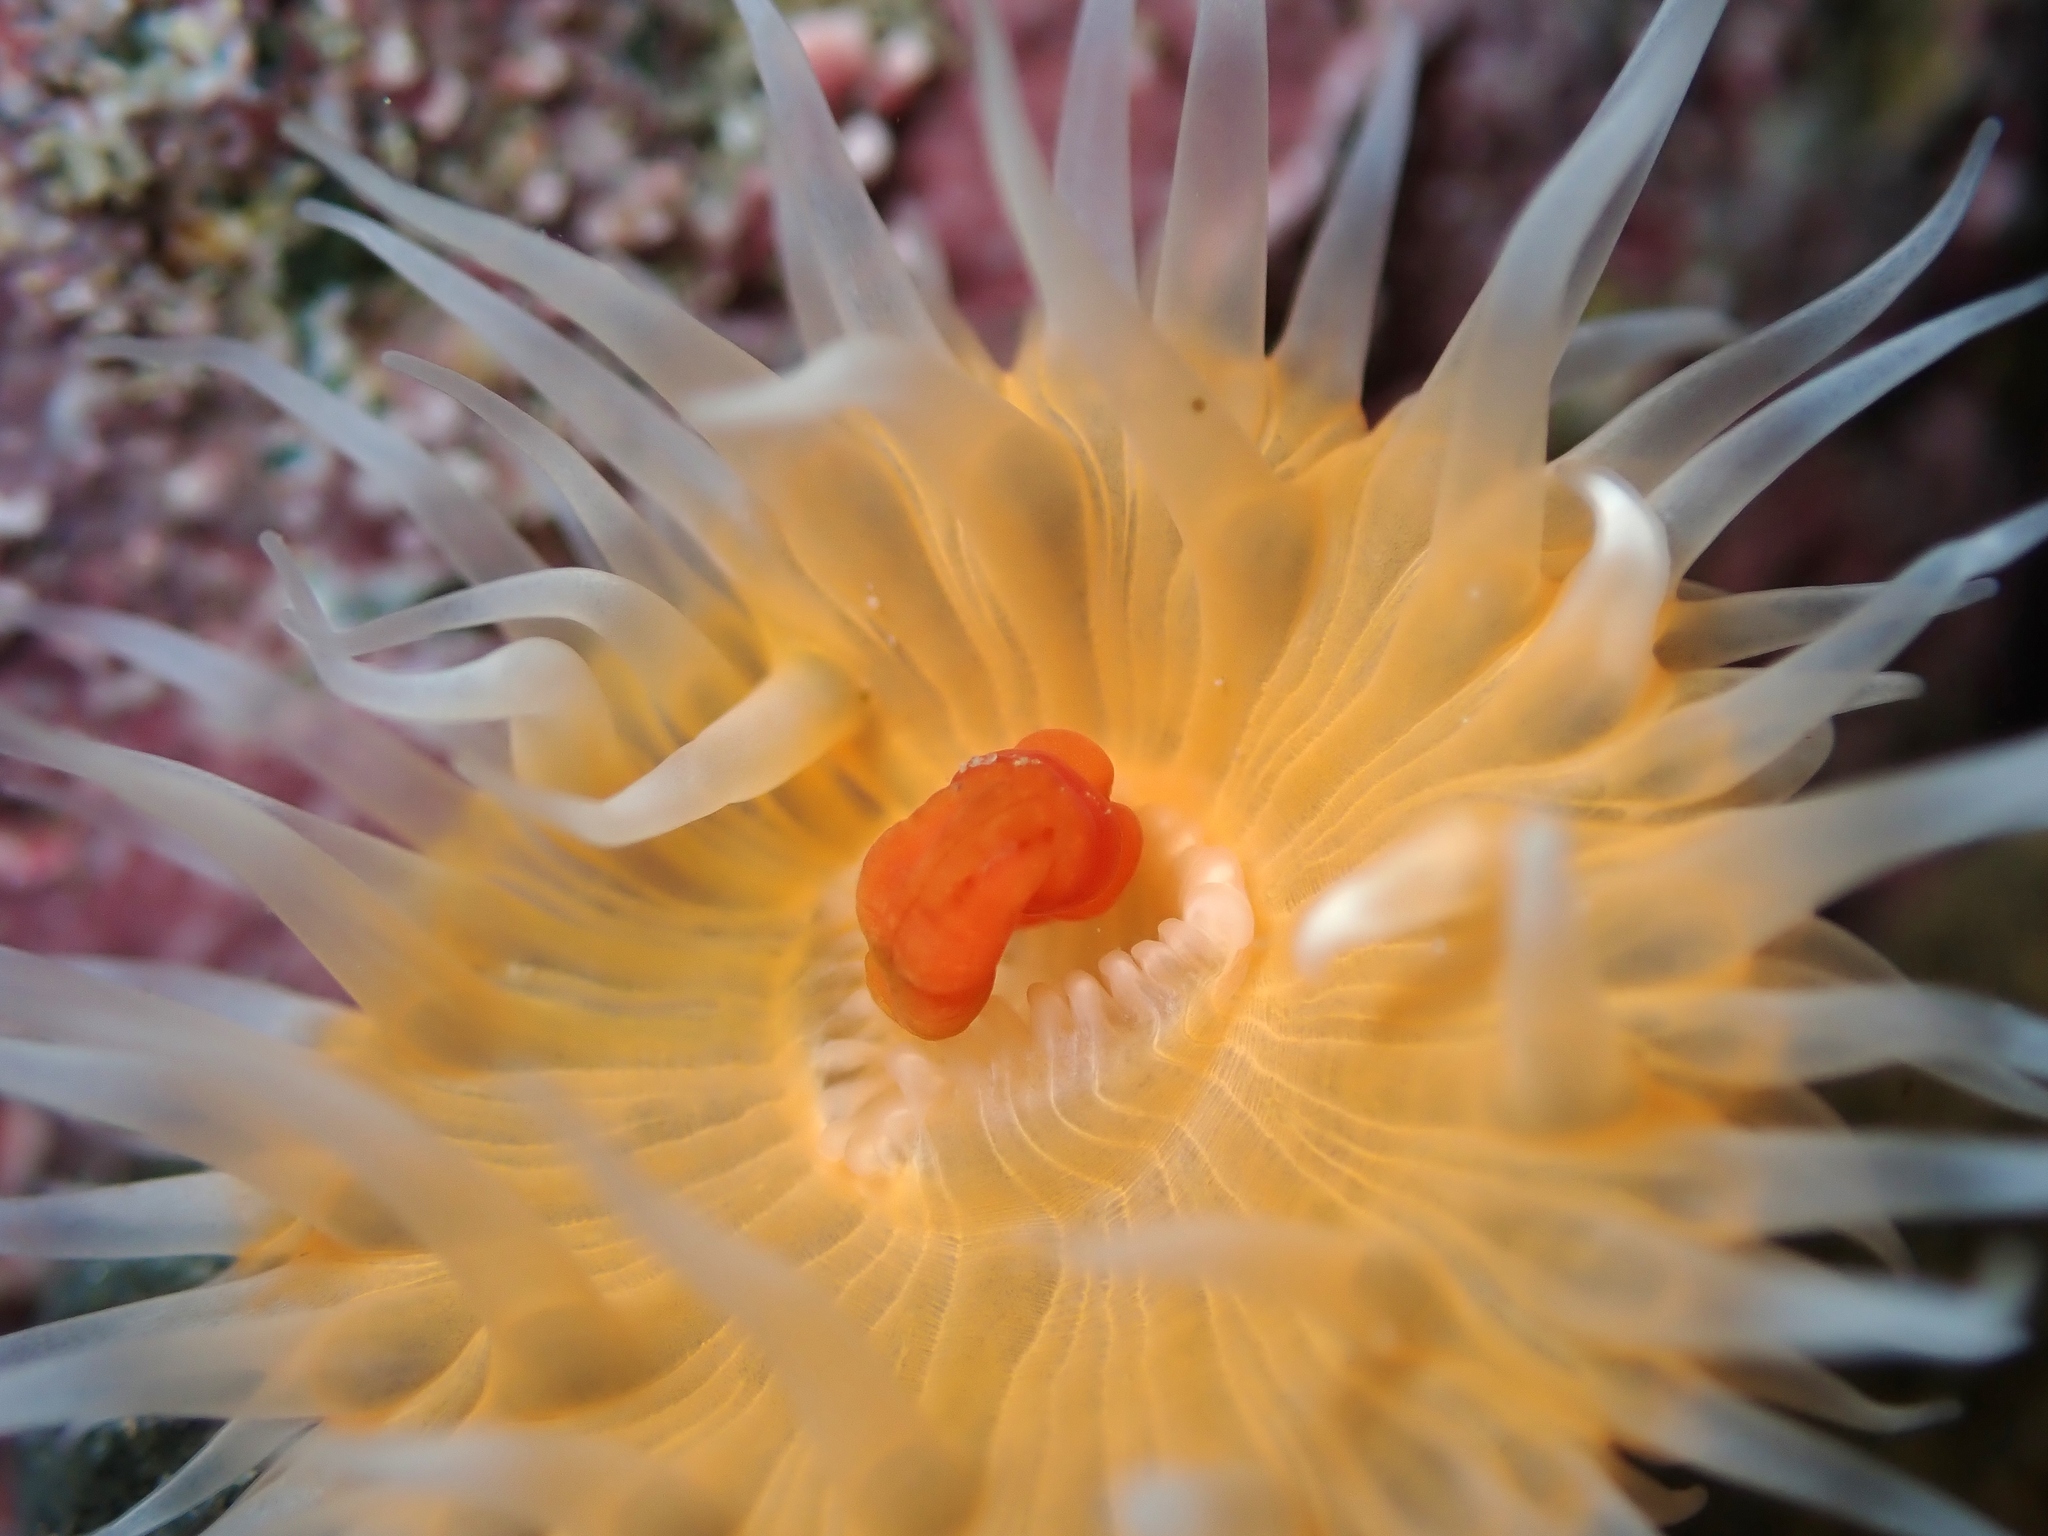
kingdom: Animalia
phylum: Cnidaria
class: Anthozoa
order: Actiniaria
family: Sagartiidae
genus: Anthothoe
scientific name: Anthothoe albocincta
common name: Orange striped anemone
